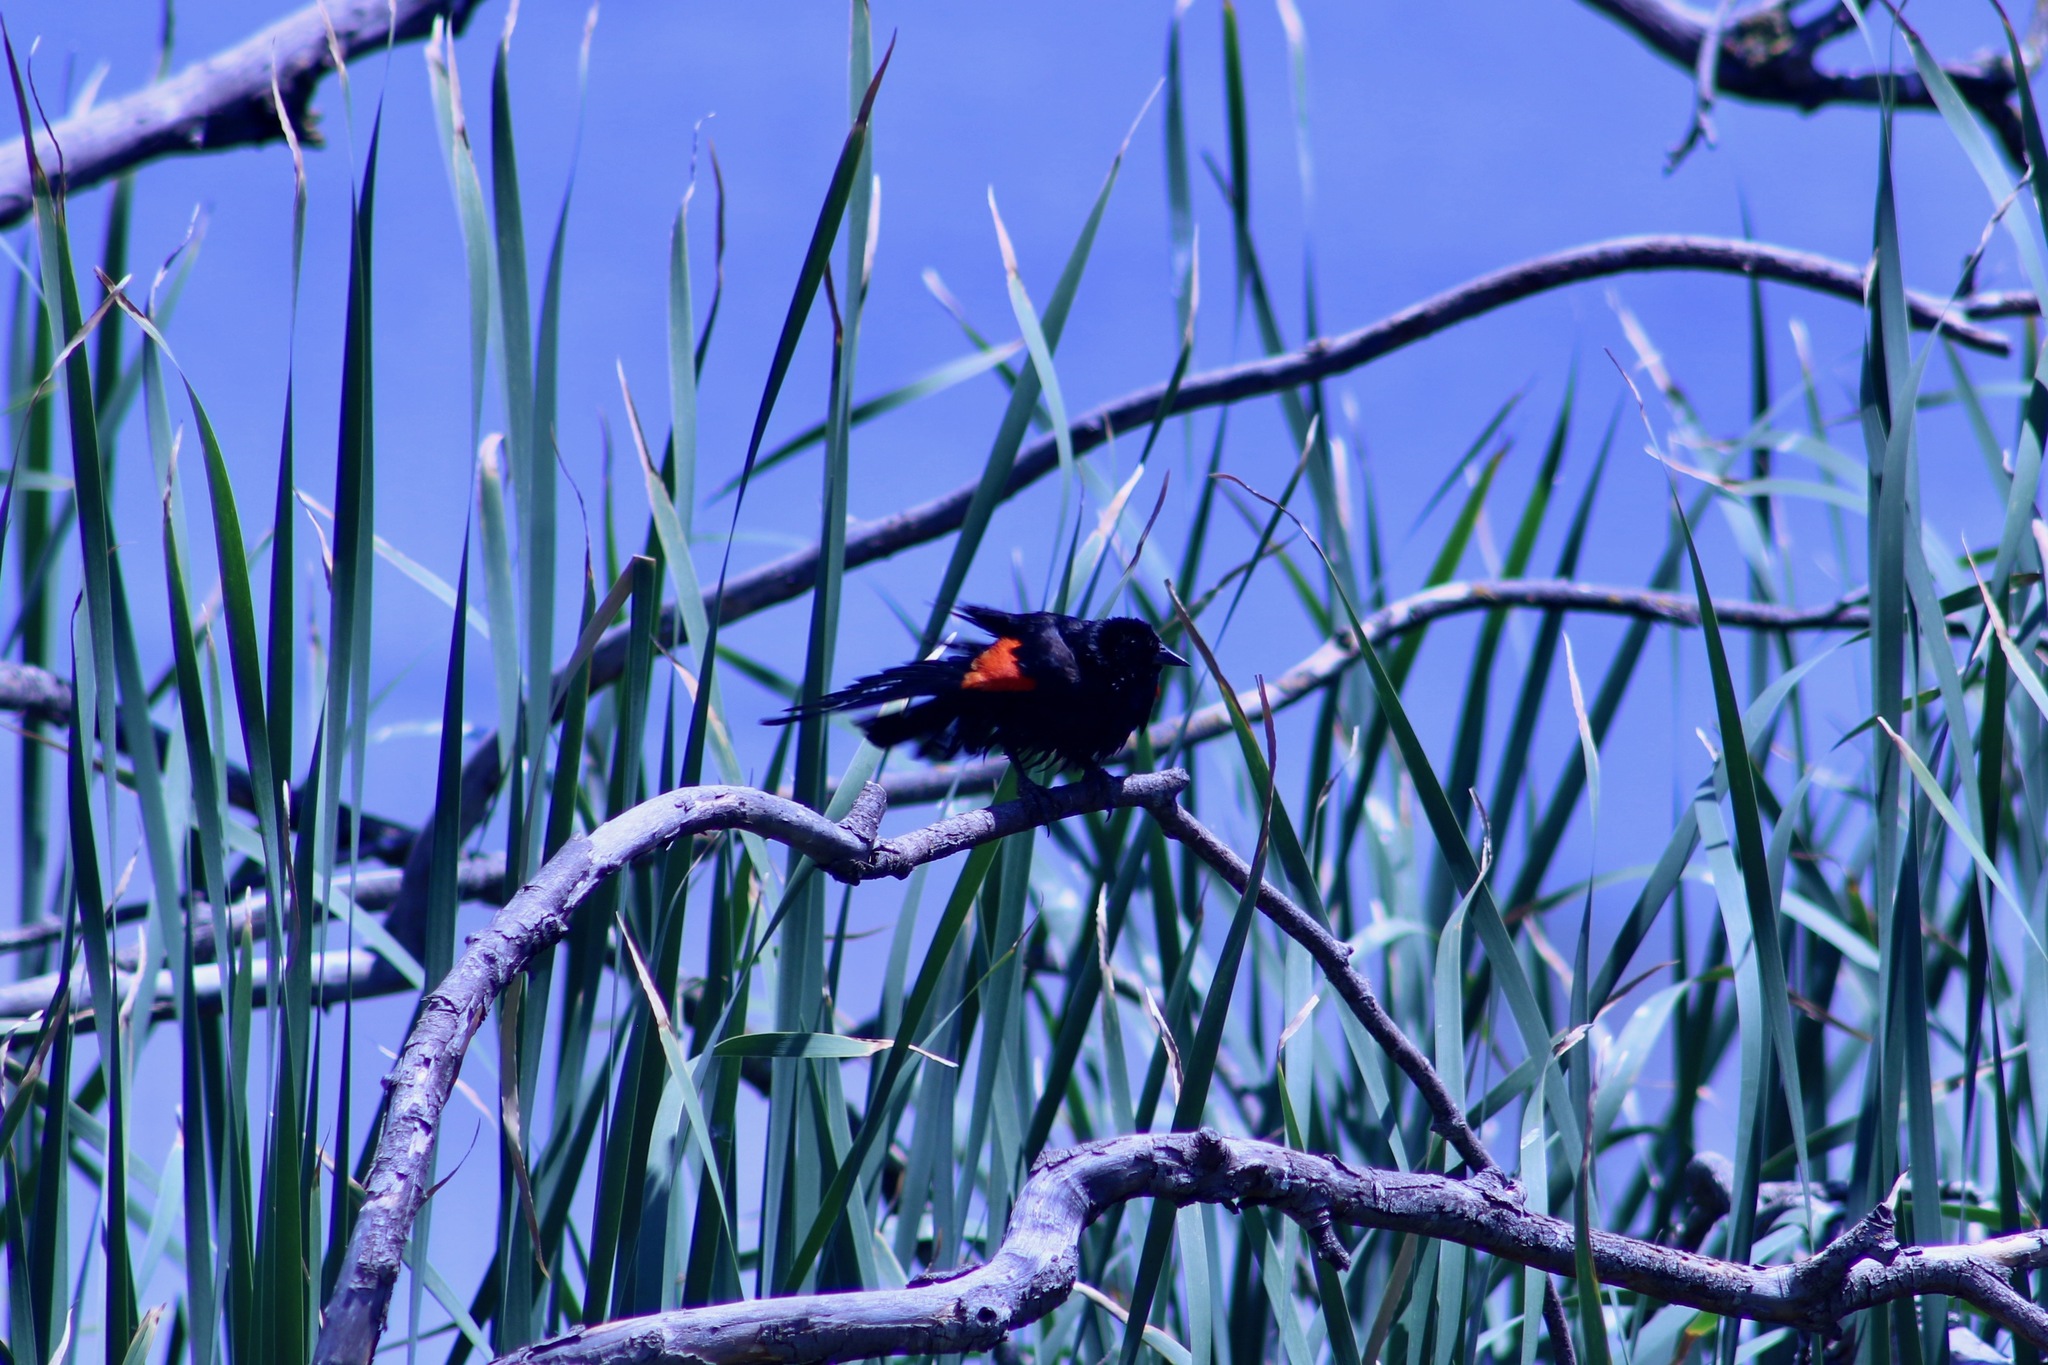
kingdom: Animalia
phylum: Chordata
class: Aves
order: Passeriformes
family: Icteridae
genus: Agelaius
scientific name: Agelaius phoeniceus
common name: Red-winged blackbird
